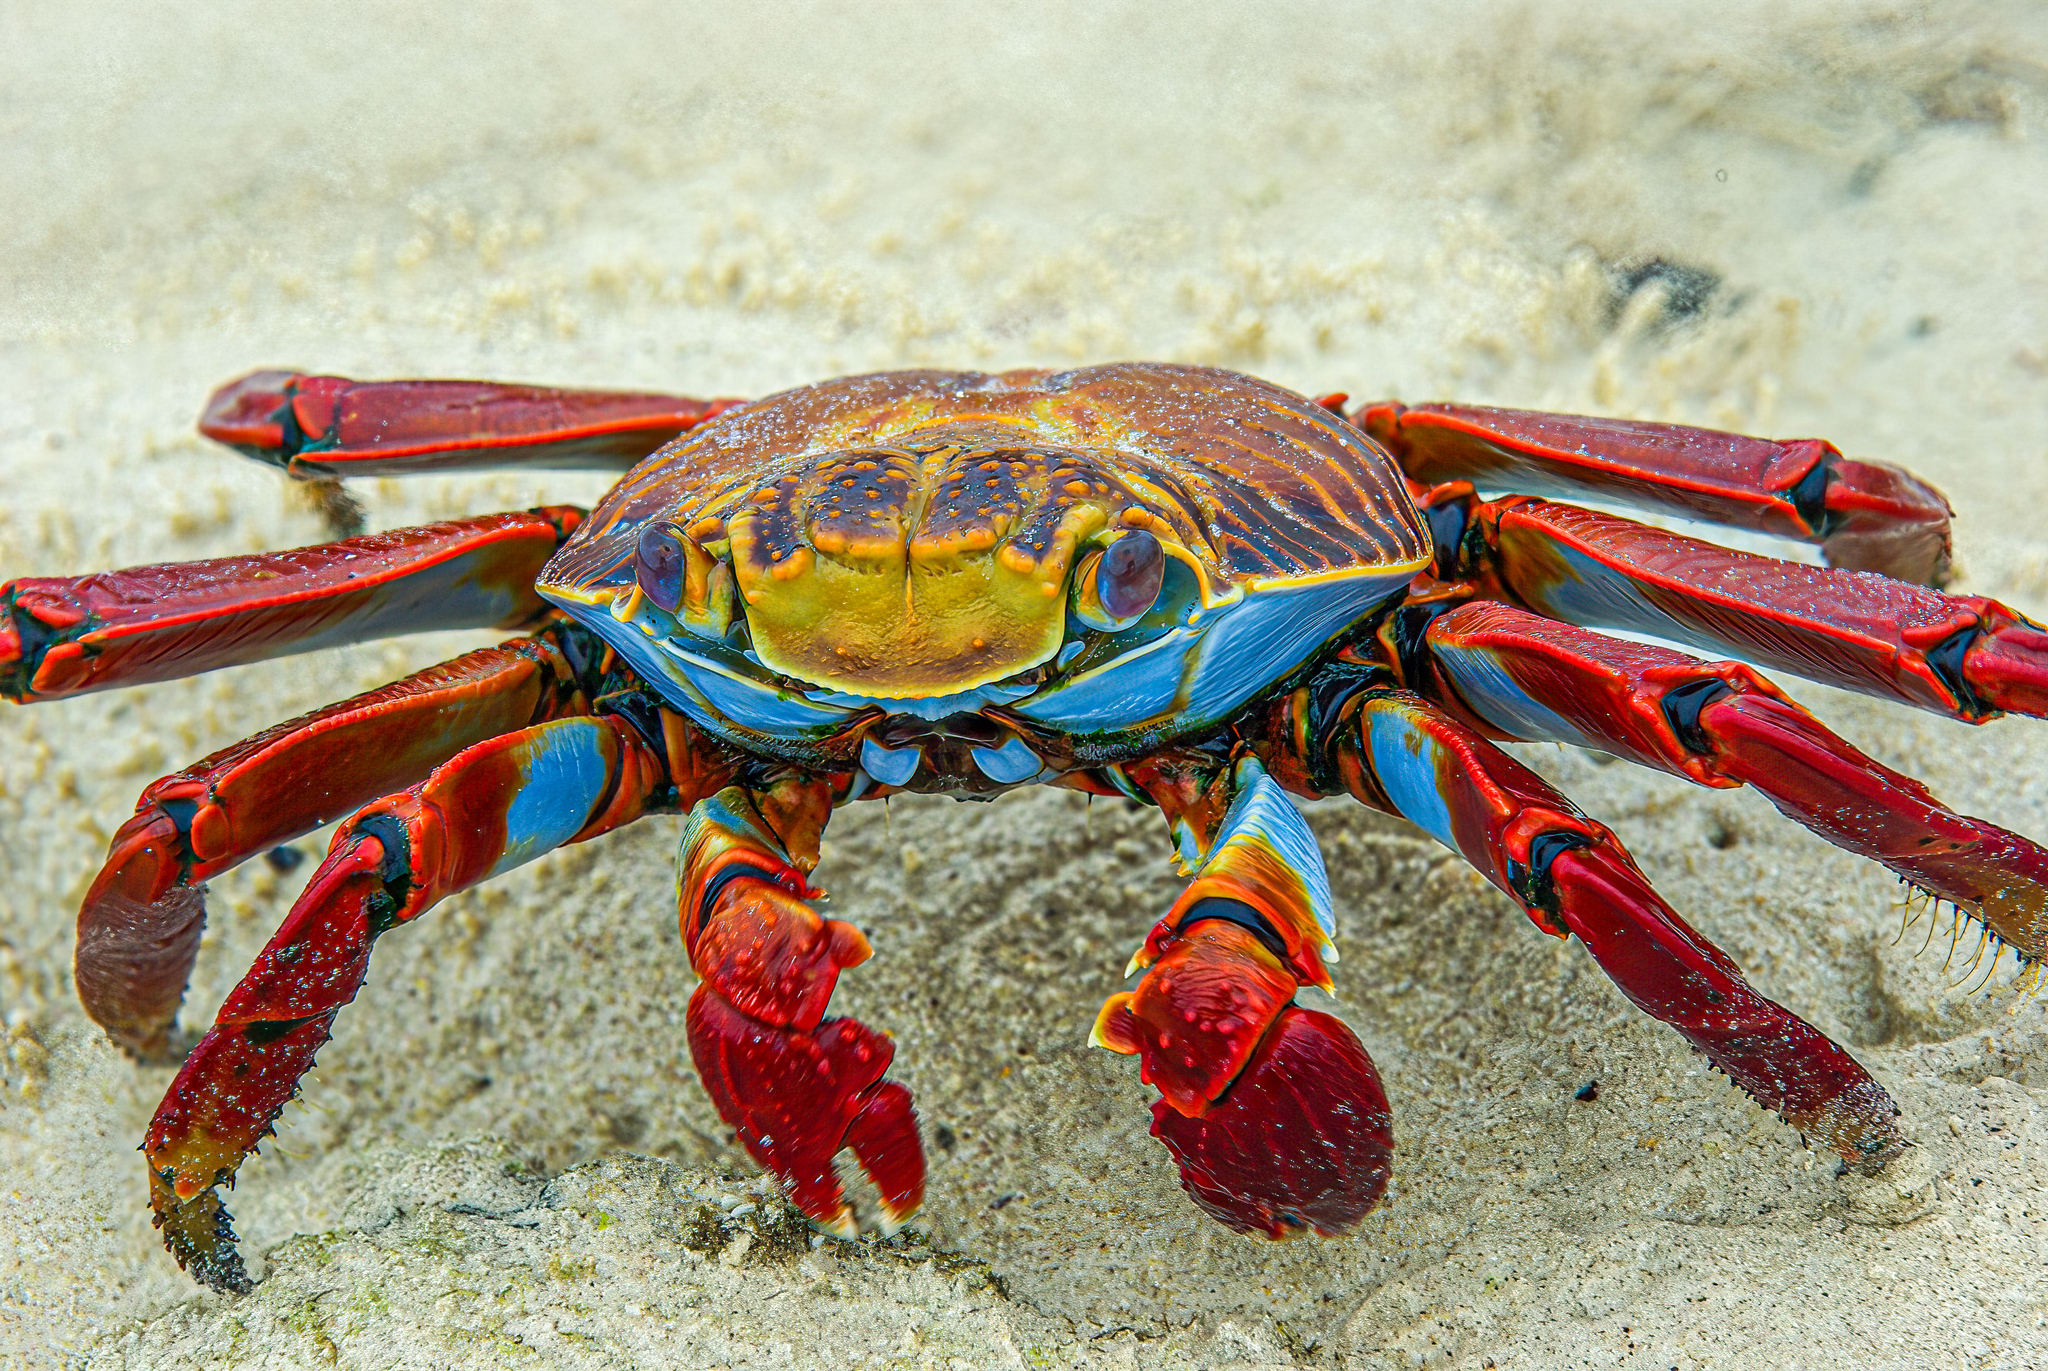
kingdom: Animalia
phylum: Arthropoda
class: Malacostraca
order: Decapoda
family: Grapsidae
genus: Grapsus
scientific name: Grapsus grapsus
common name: Sally lightfoot
